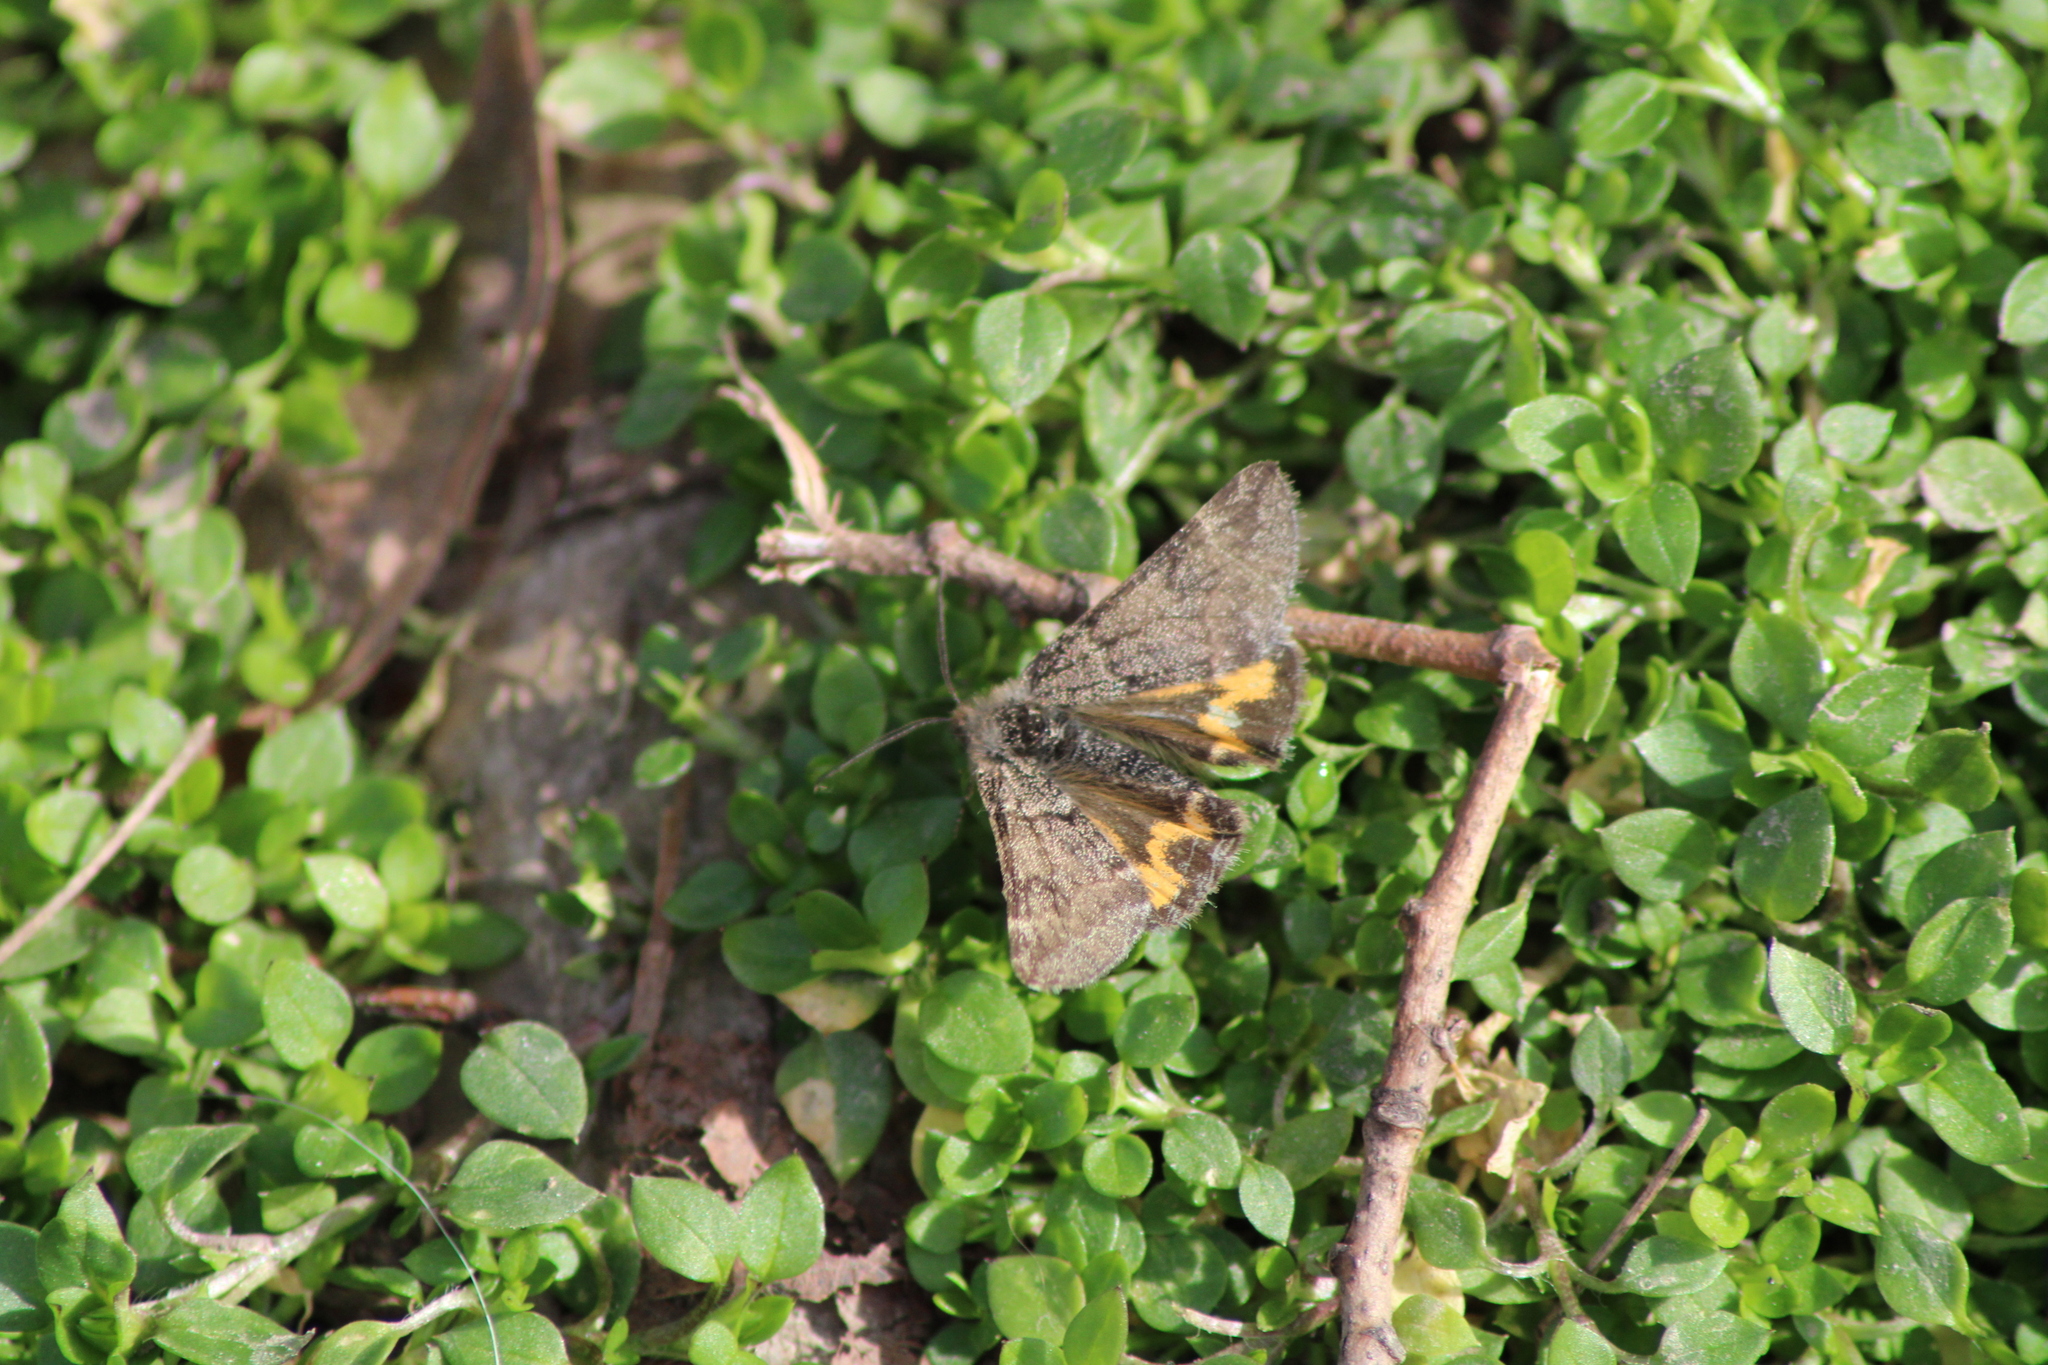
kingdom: Animalia
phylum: Arthropoda
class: Insecta
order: Lepidoptera
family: Geometridae
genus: Boudinotiana
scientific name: Boudinotiana puella
